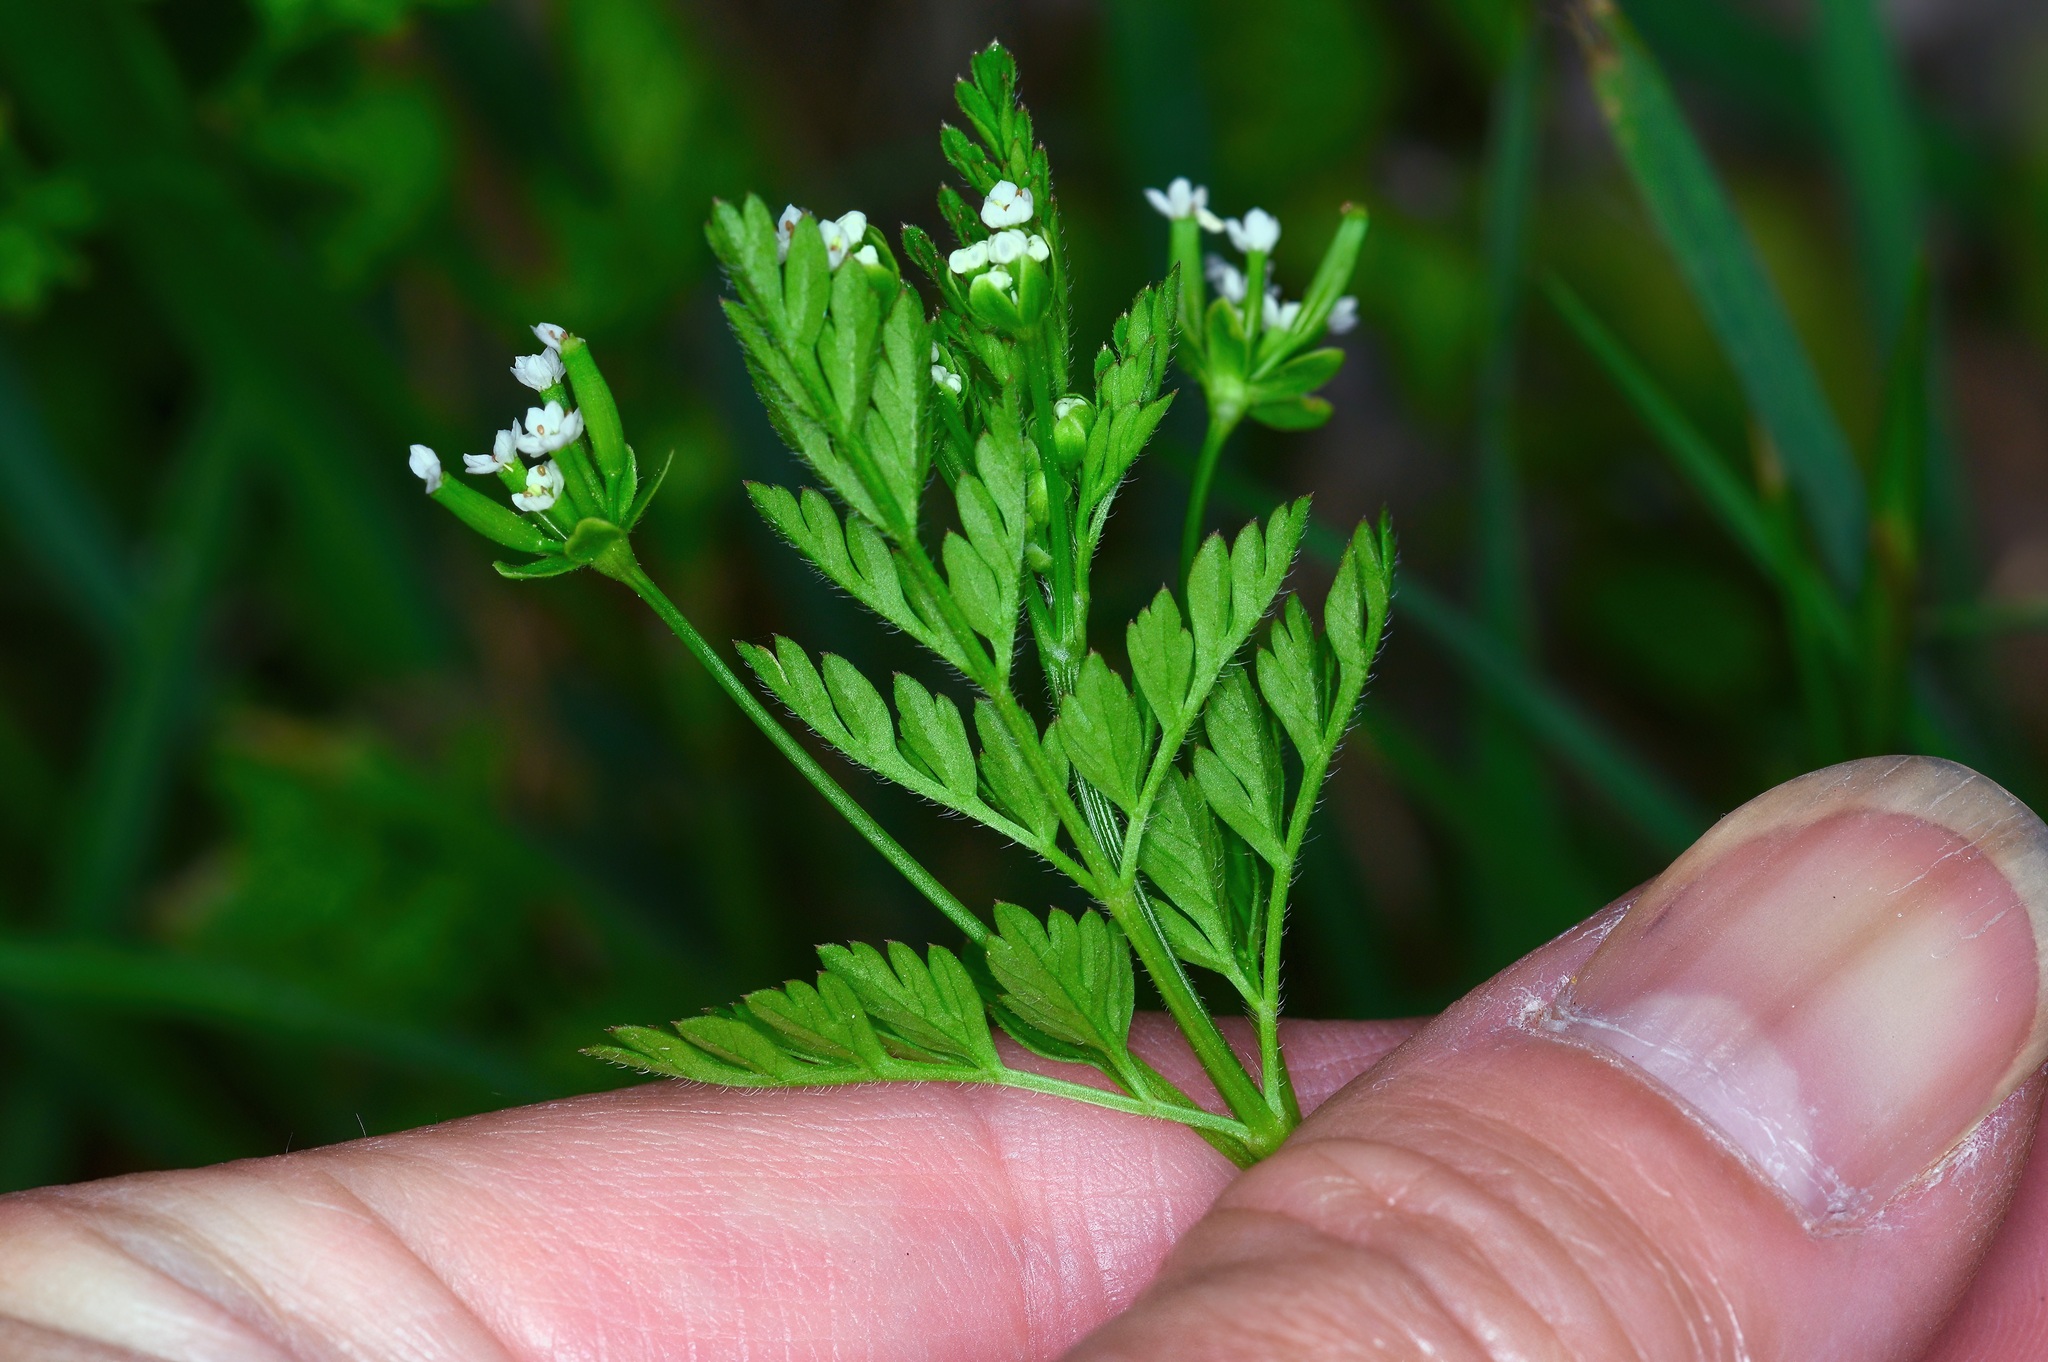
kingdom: Plantae
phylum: Tracheophyta
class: Magnoliopsida
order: Apiales
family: Apiaceae
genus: Chaerophyllum
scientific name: Chaerophyllum tainturieri
